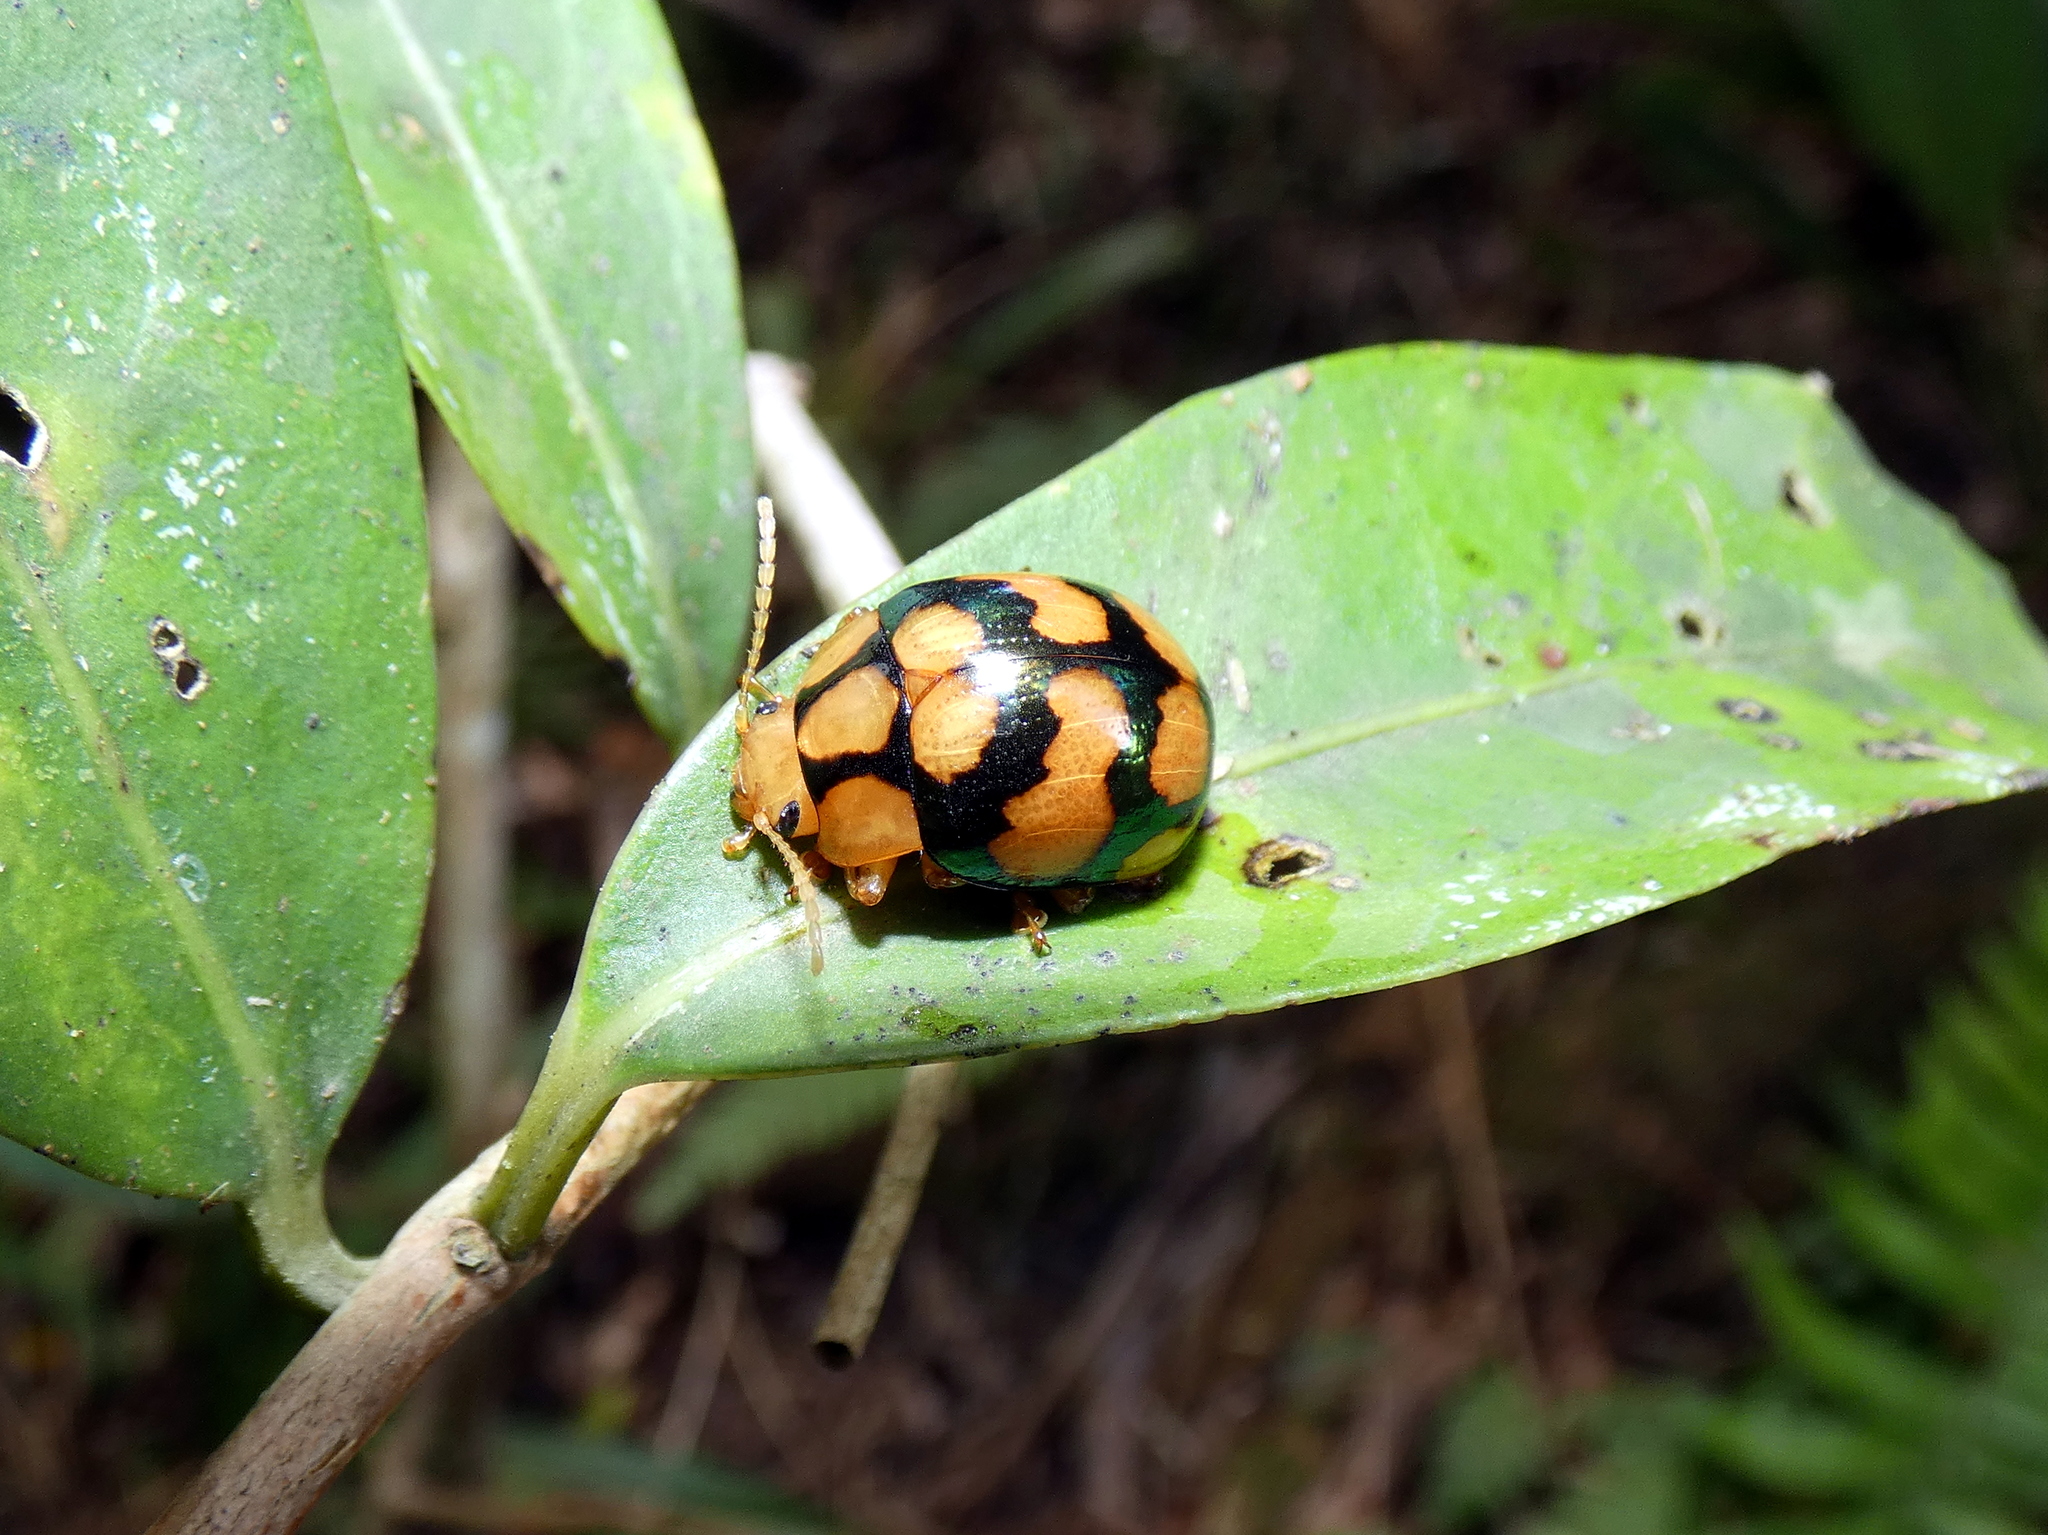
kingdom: Animalia
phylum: Arthropoda
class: Insecta
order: Coleoptera
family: Chrysomelidae
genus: Platyphora
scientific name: Platyphora
